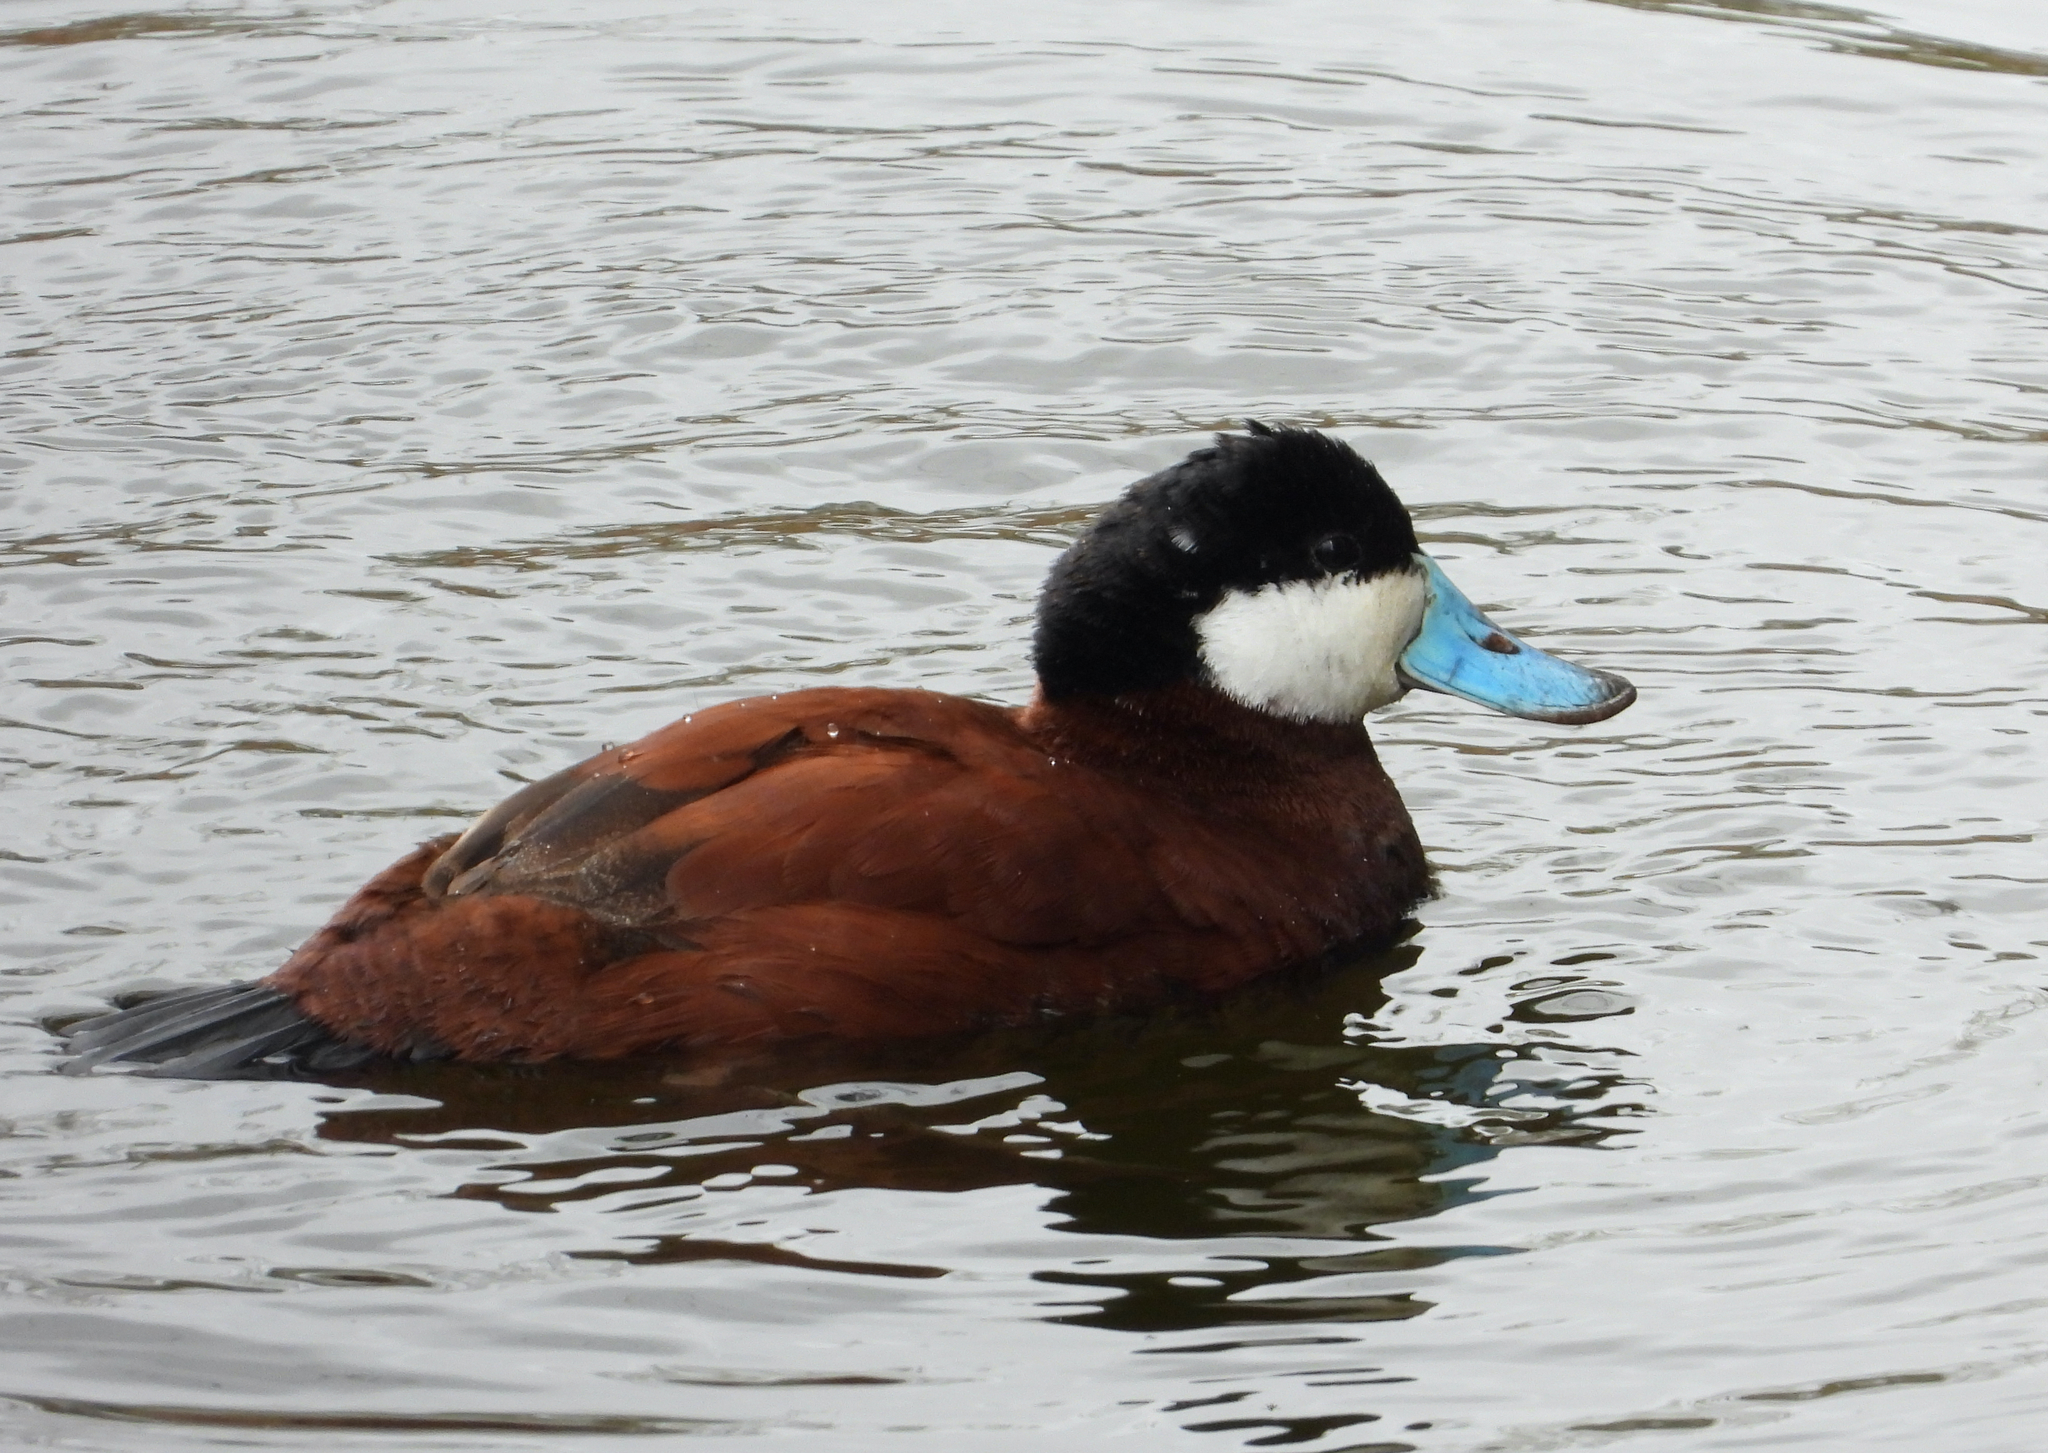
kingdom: Animalia
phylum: Chordata
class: Aves
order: Anseriformes
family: Anatidae
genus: Oxyura
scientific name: Oxyura jamaicensis
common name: Ruddy duck
